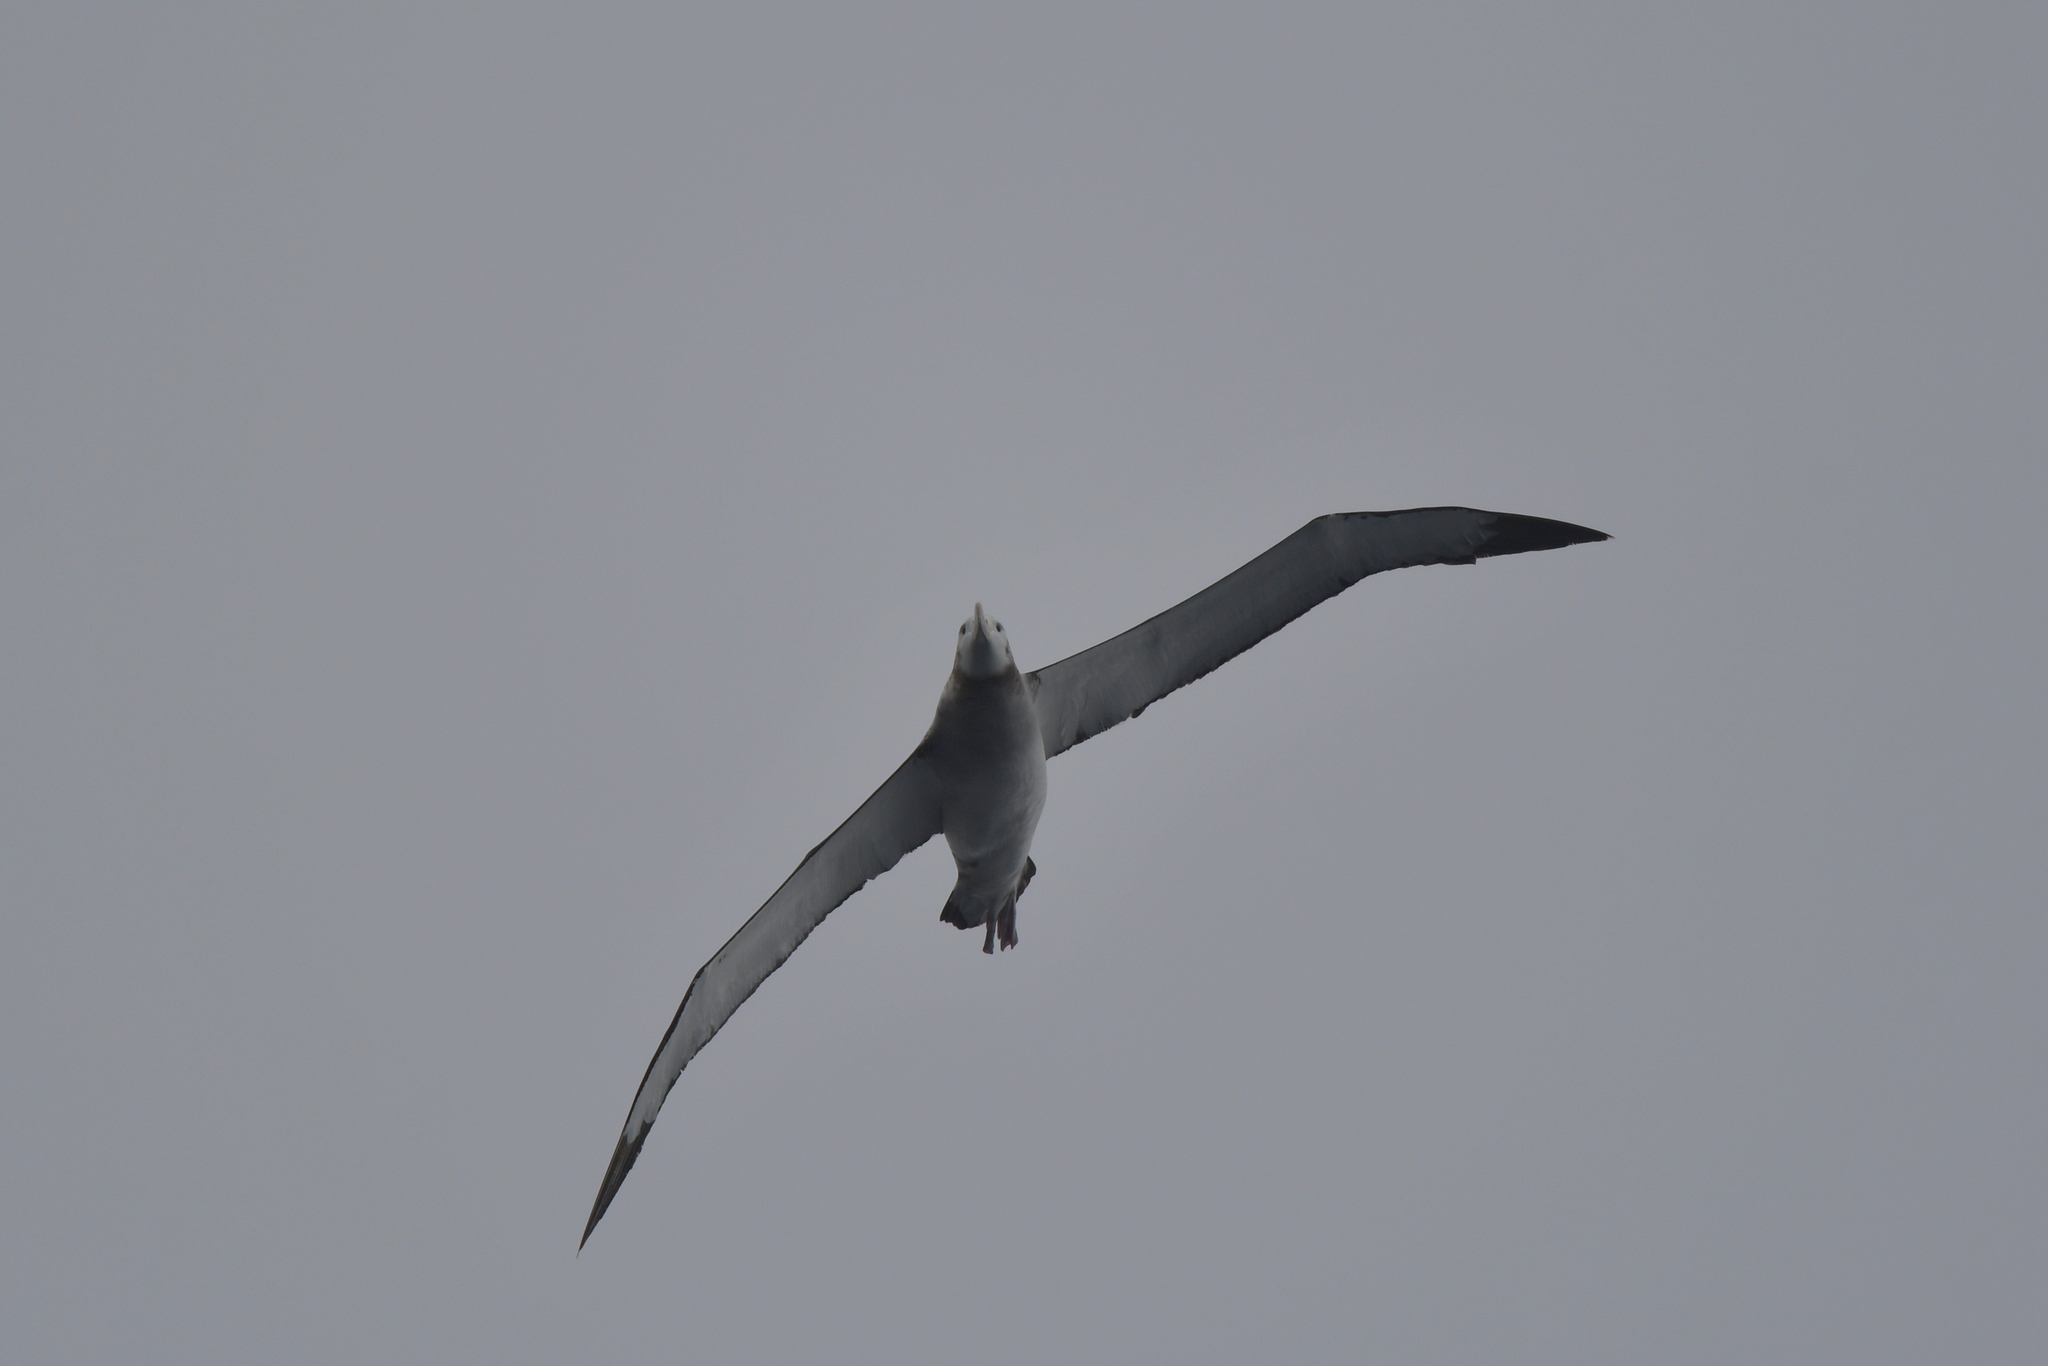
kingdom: Animalia
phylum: Chordata
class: Aves
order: Procellariiformes
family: Diomedeidae
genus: Diomedea
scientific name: Diomedea antipodensis
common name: Antipodean albatross
